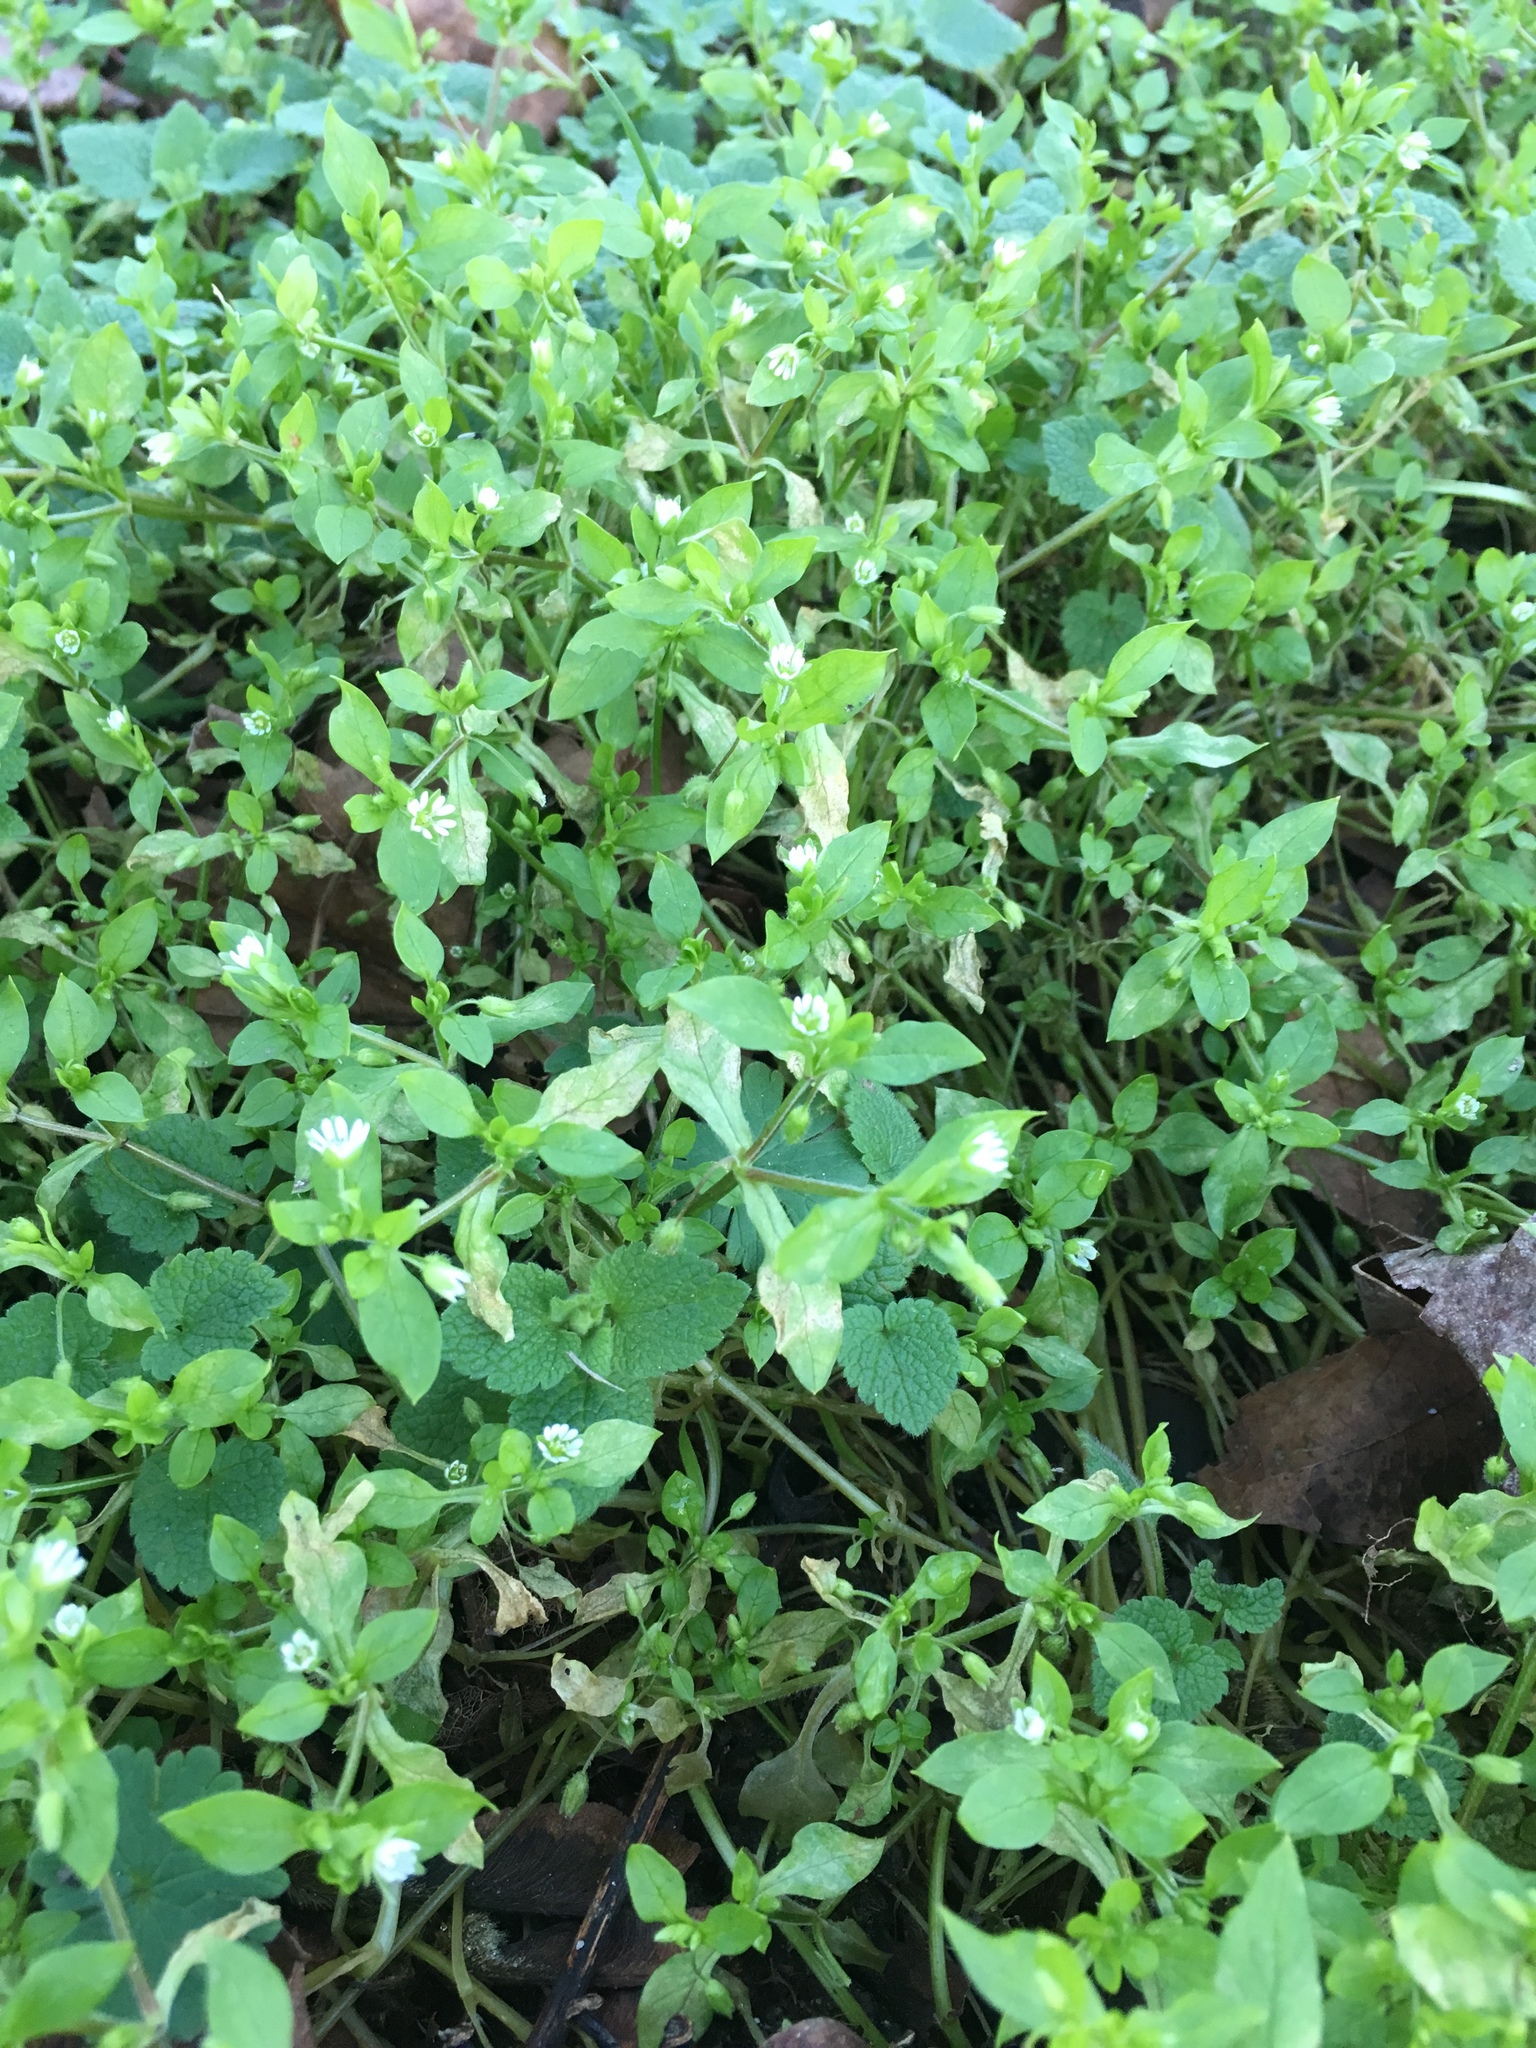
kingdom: Plantae
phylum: Tracheophyta
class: Magnoliopsida
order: Caryophyllales
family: Caryophyllaceae
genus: Stellaria
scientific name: Stellaria media
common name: Common chickweed
